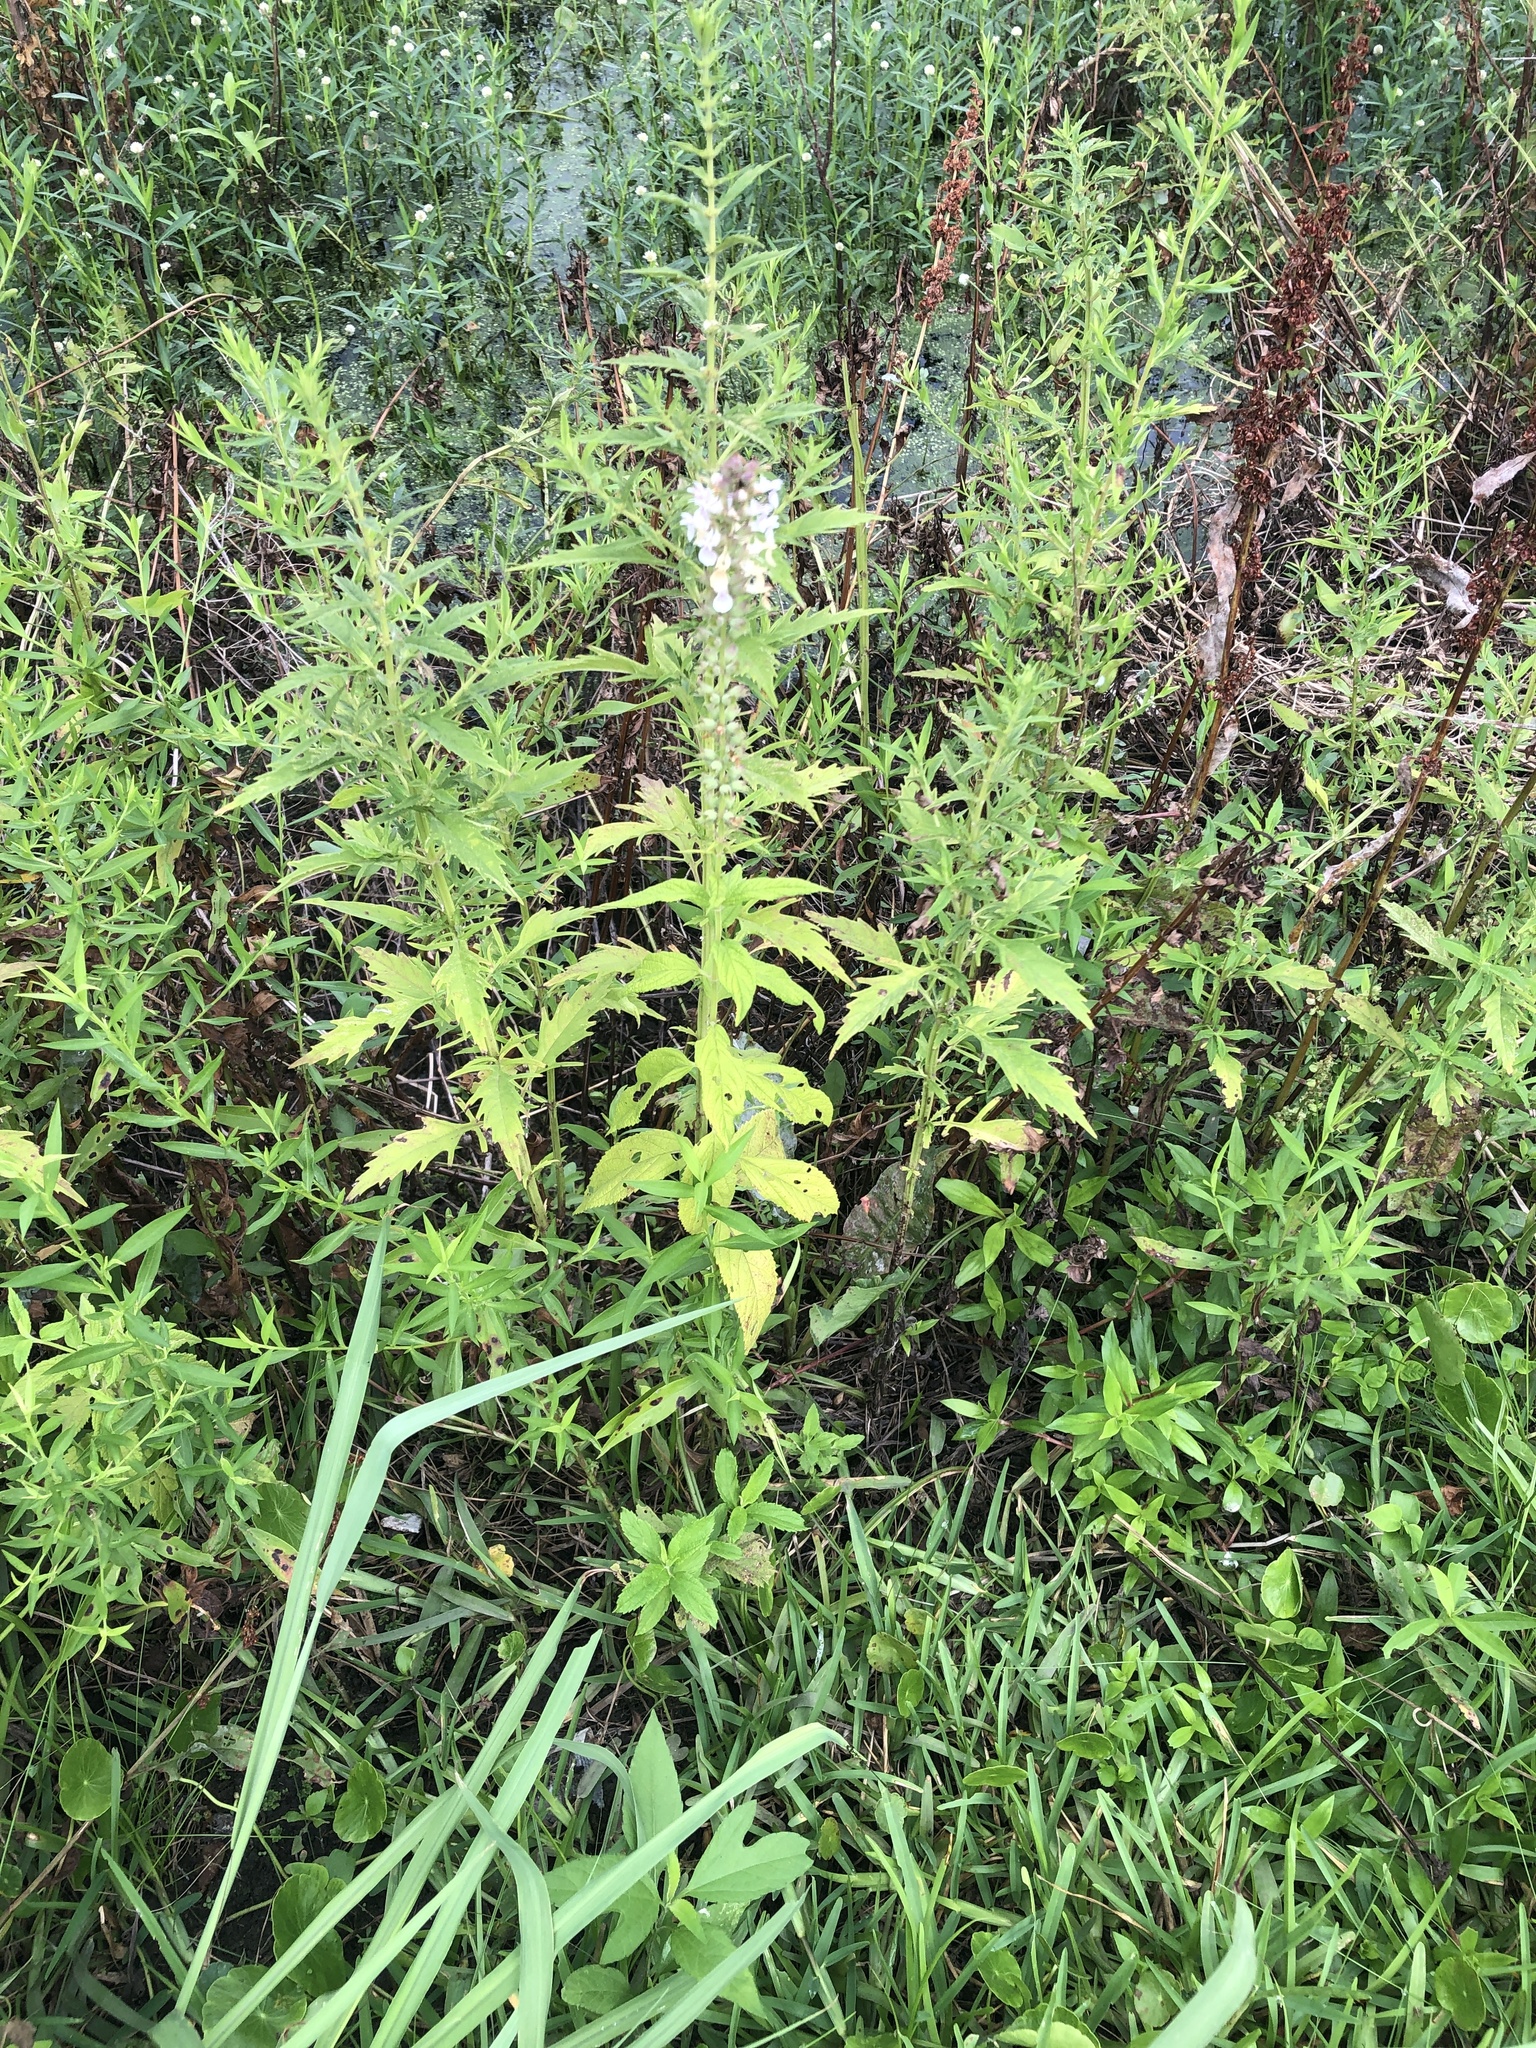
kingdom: Plantae
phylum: Tracheophyta
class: Magnoliopsida
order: Lamiales
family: Lamiaceae
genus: Teucrium
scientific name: Teucrium canadense
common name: American germander
